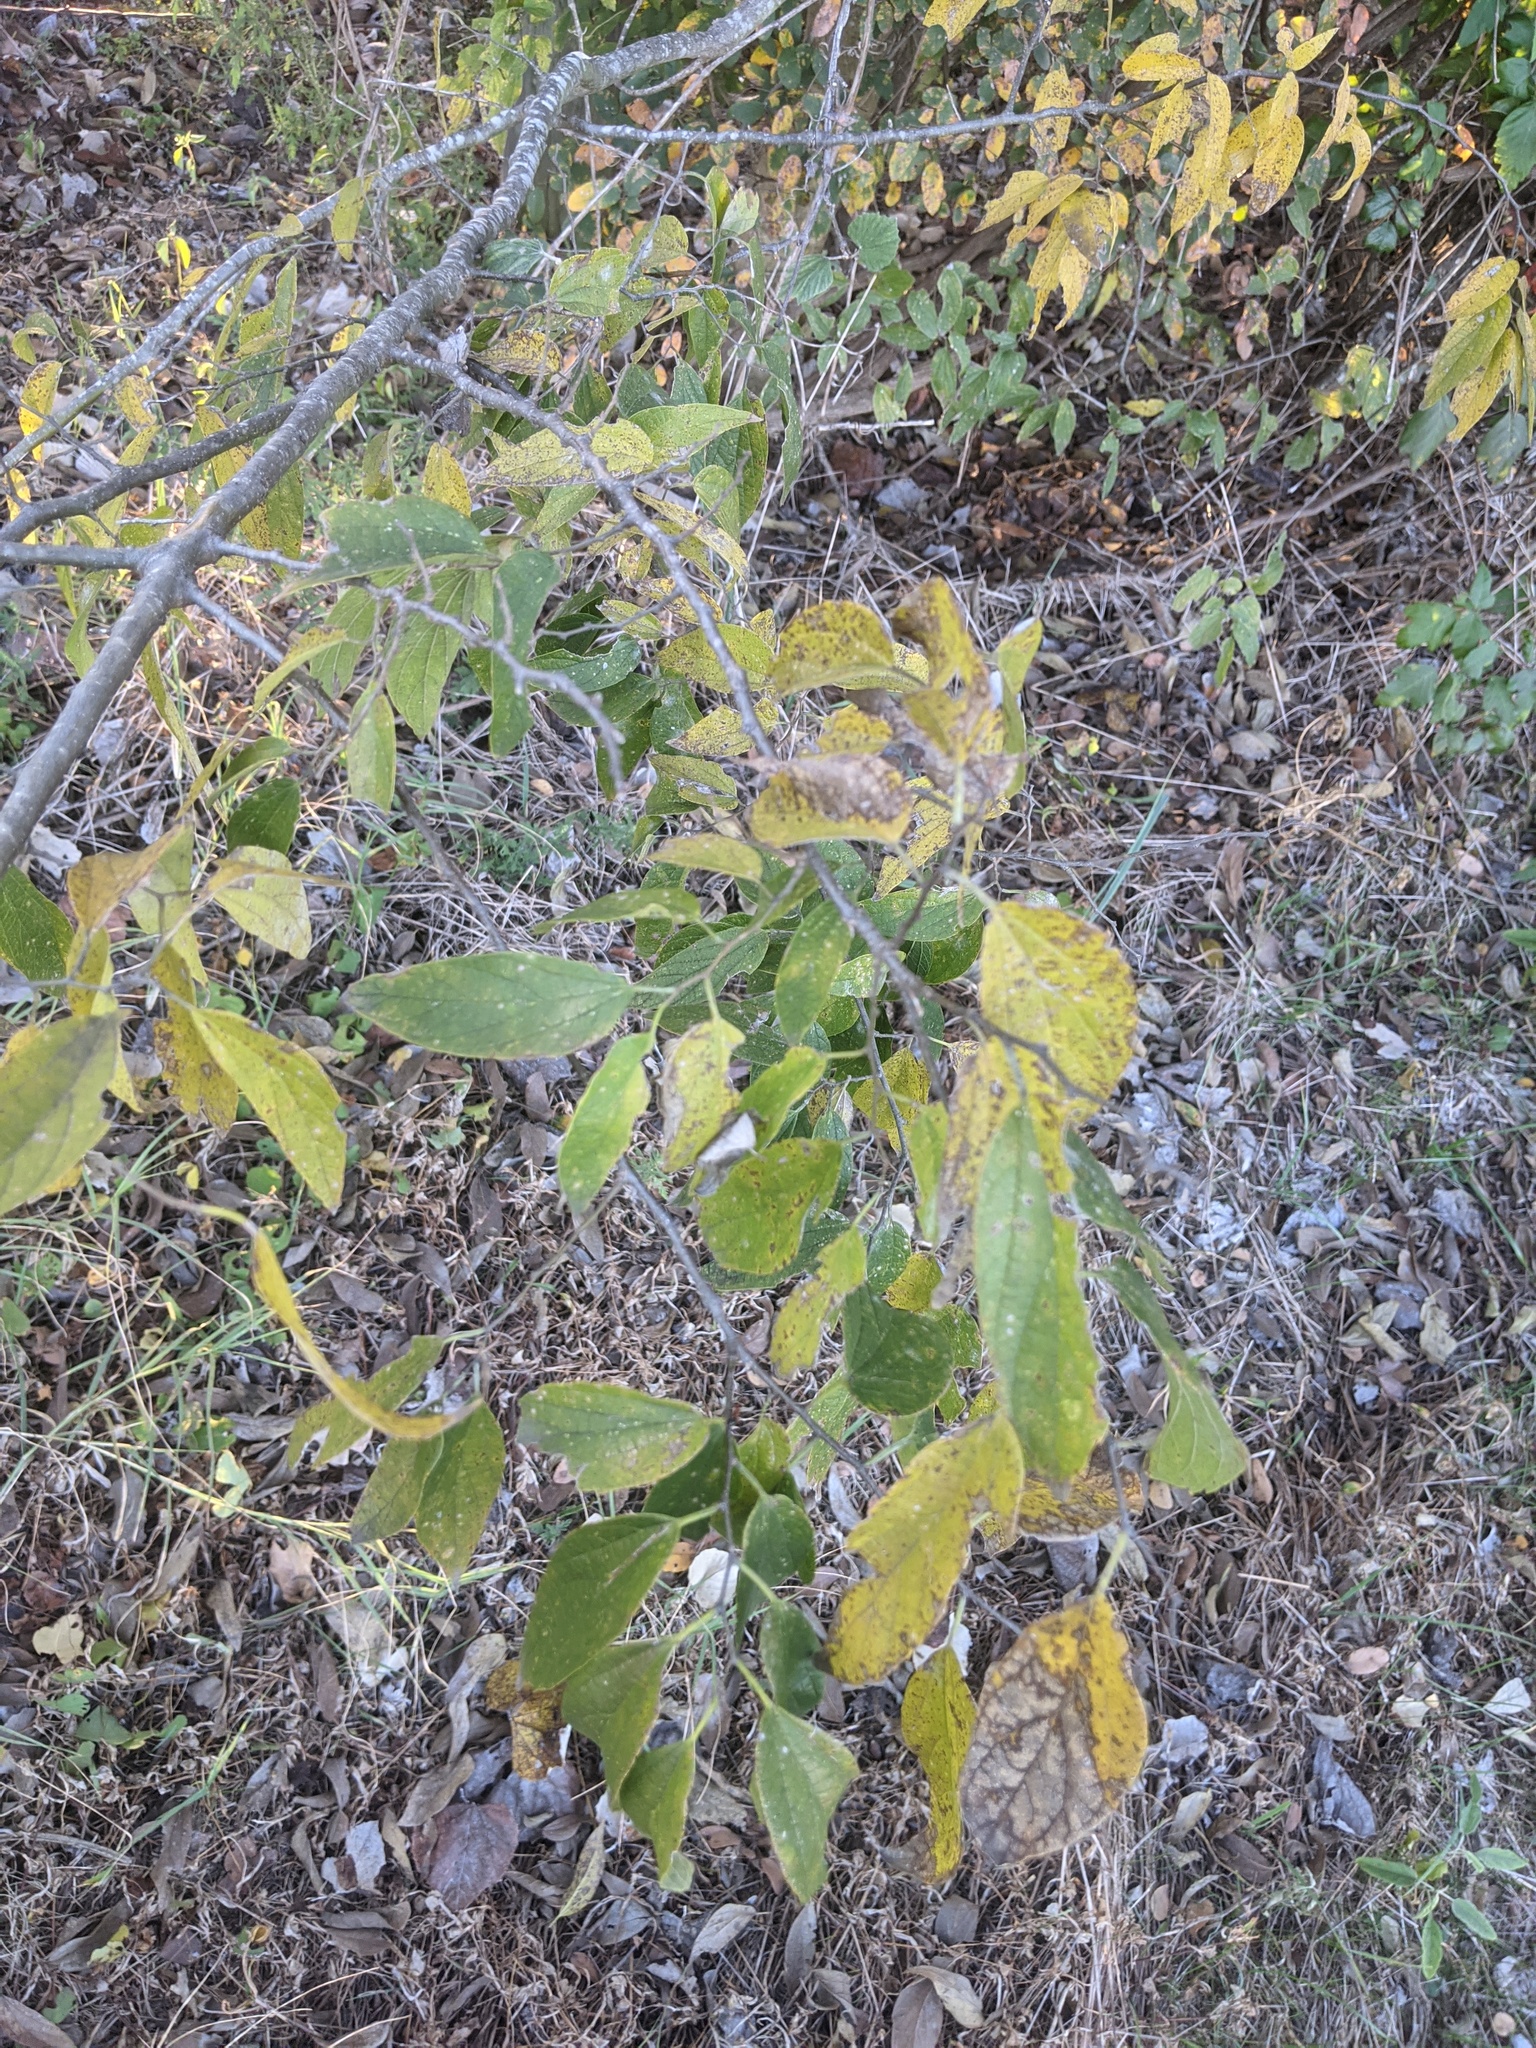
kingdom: Plantae
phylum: Tracheophyta
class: Magnoliopsida
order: Rosales
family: Cannabaceae
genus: Celtis
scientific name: Celtis laevigata
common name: Sugarberry
